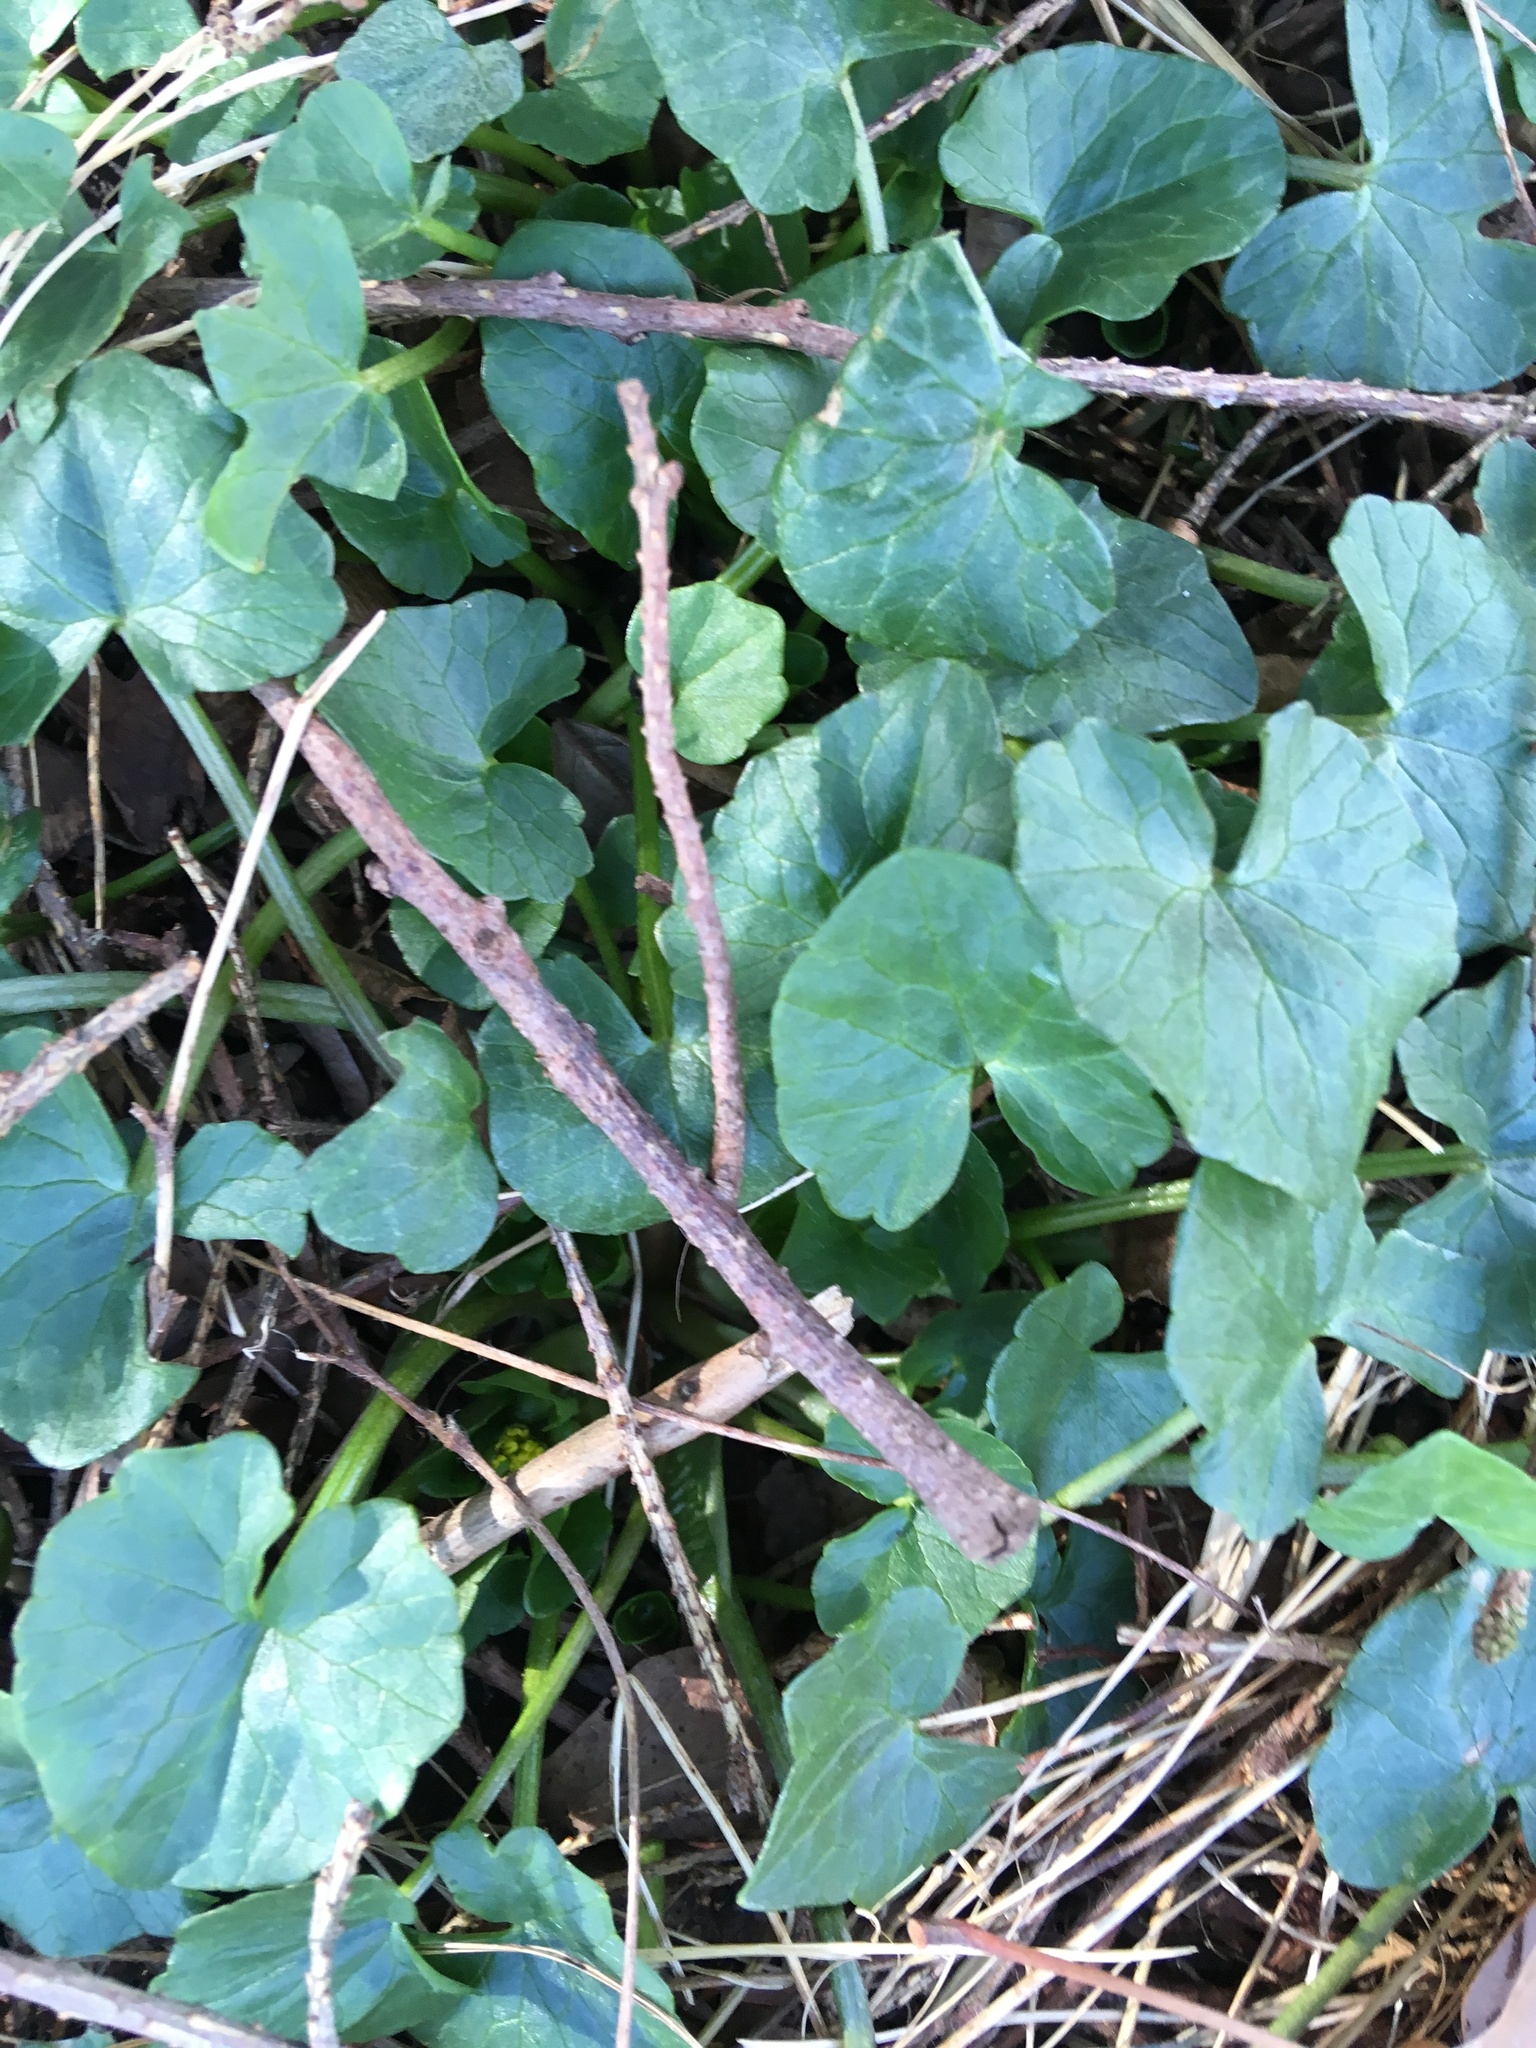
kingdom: Plantae
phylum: Tracheophyta
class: Magnoliopsida
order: Ranunculales
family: Ranunculaceae
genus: Ficaria
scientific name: Ficaria verna
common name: Lesser celandine
